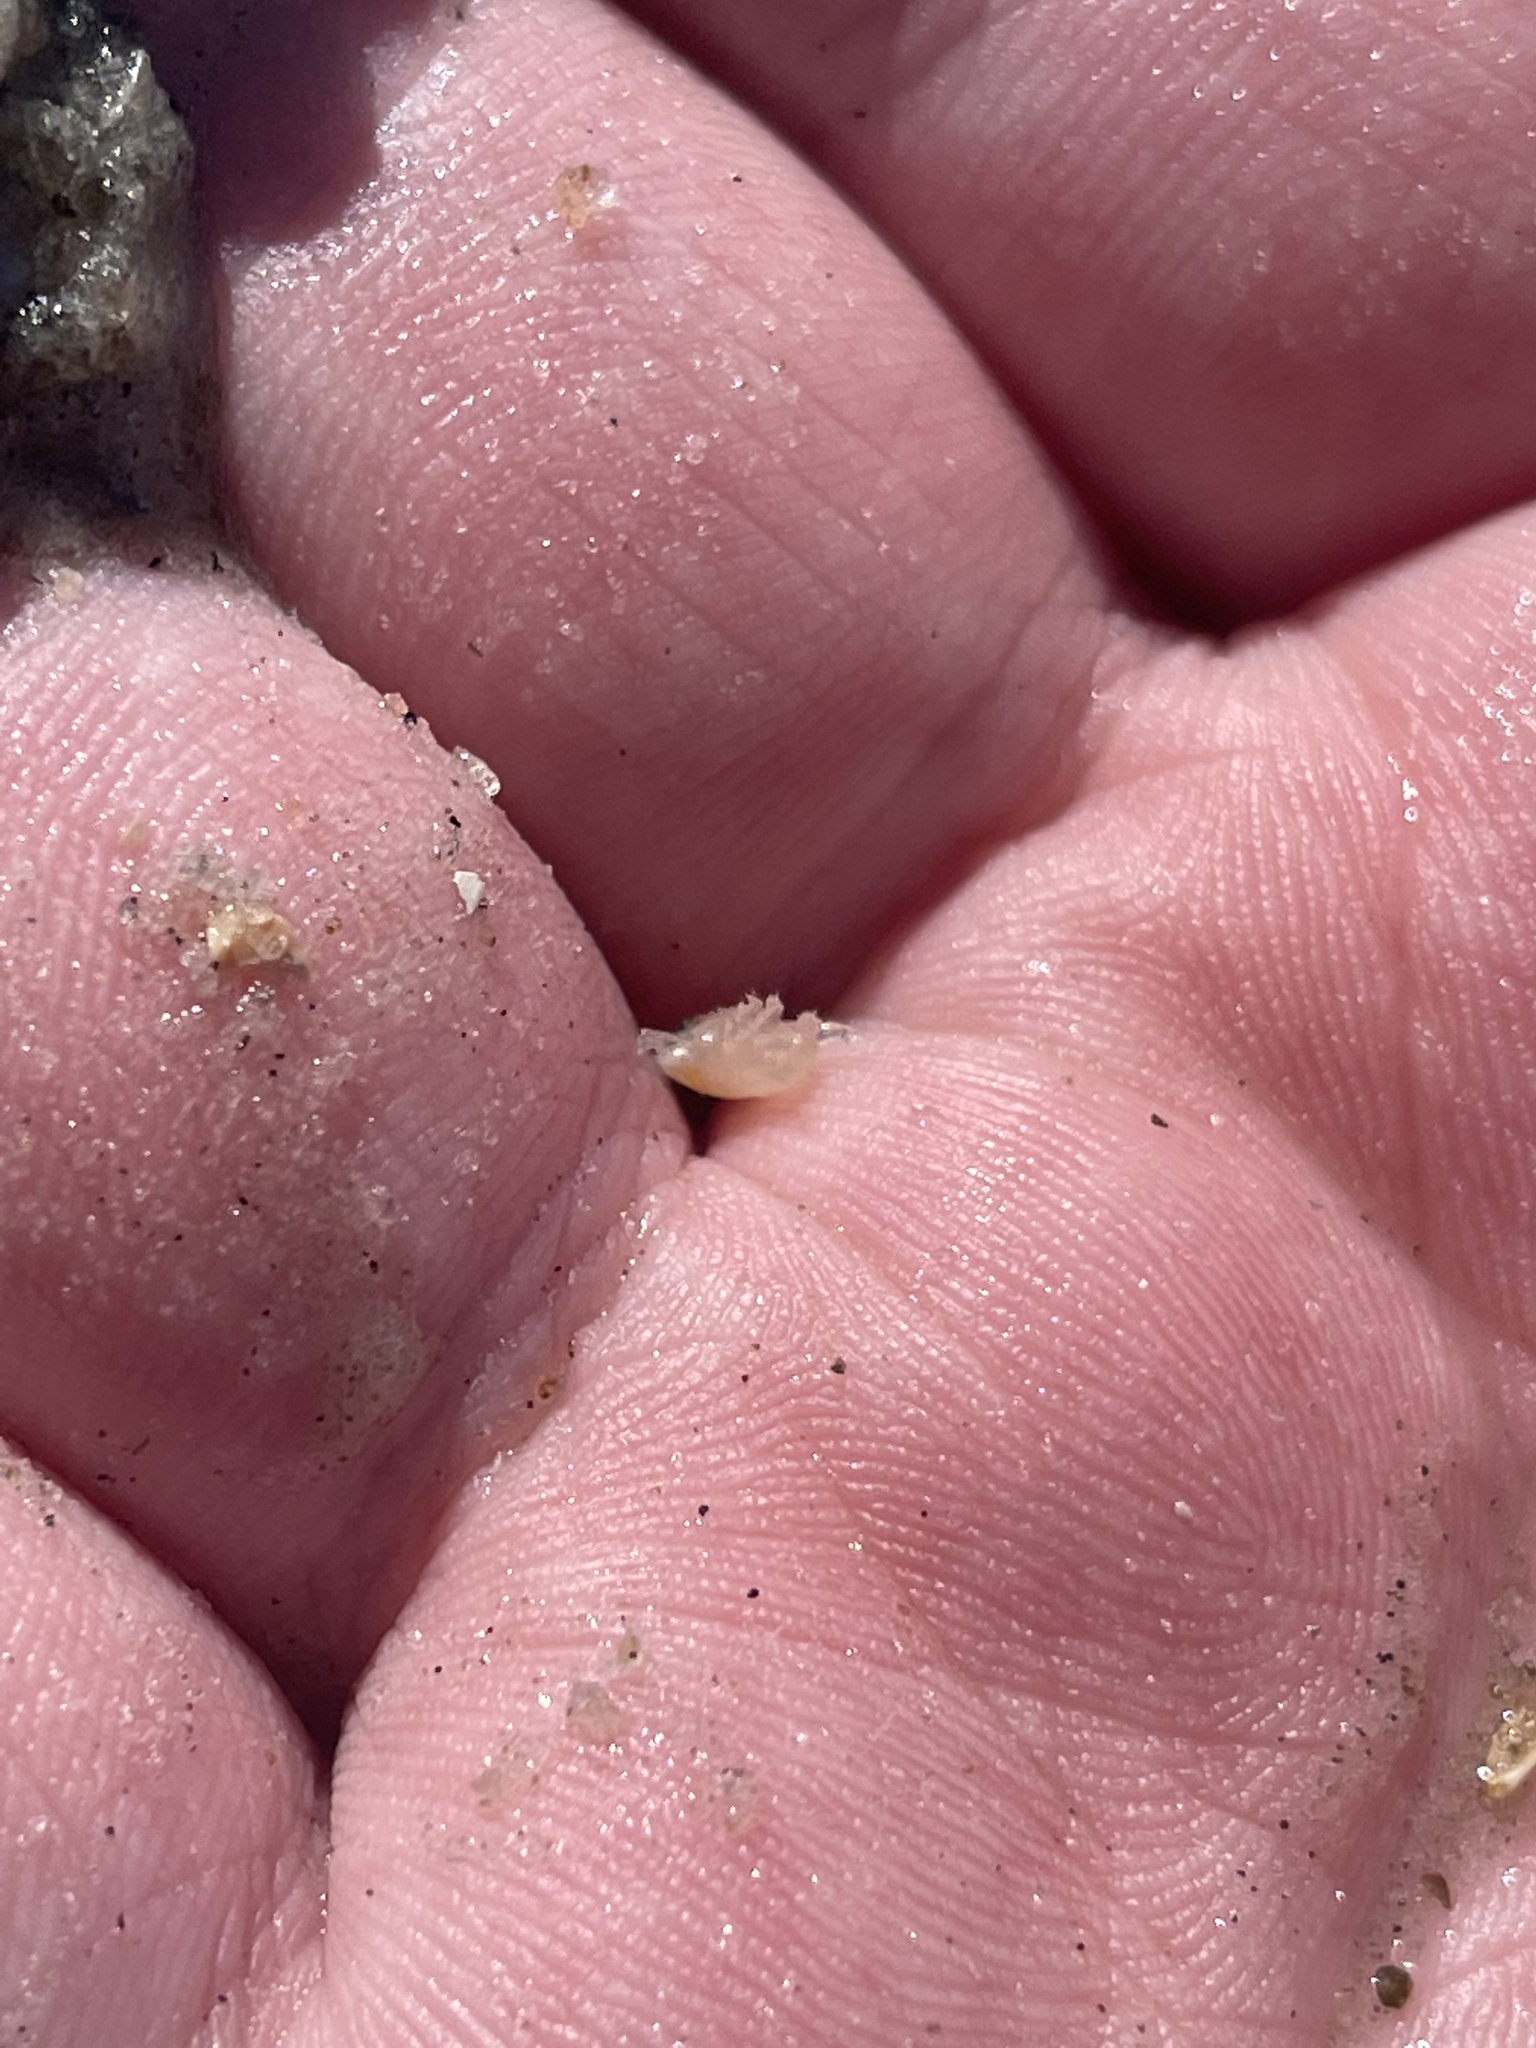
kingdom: Animalia
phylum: Arthropoda
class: Malacostraca
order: Decapoda
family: Hippidae
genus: Emerita
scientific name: Emerita talpoida
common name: Atlantic sand crab
